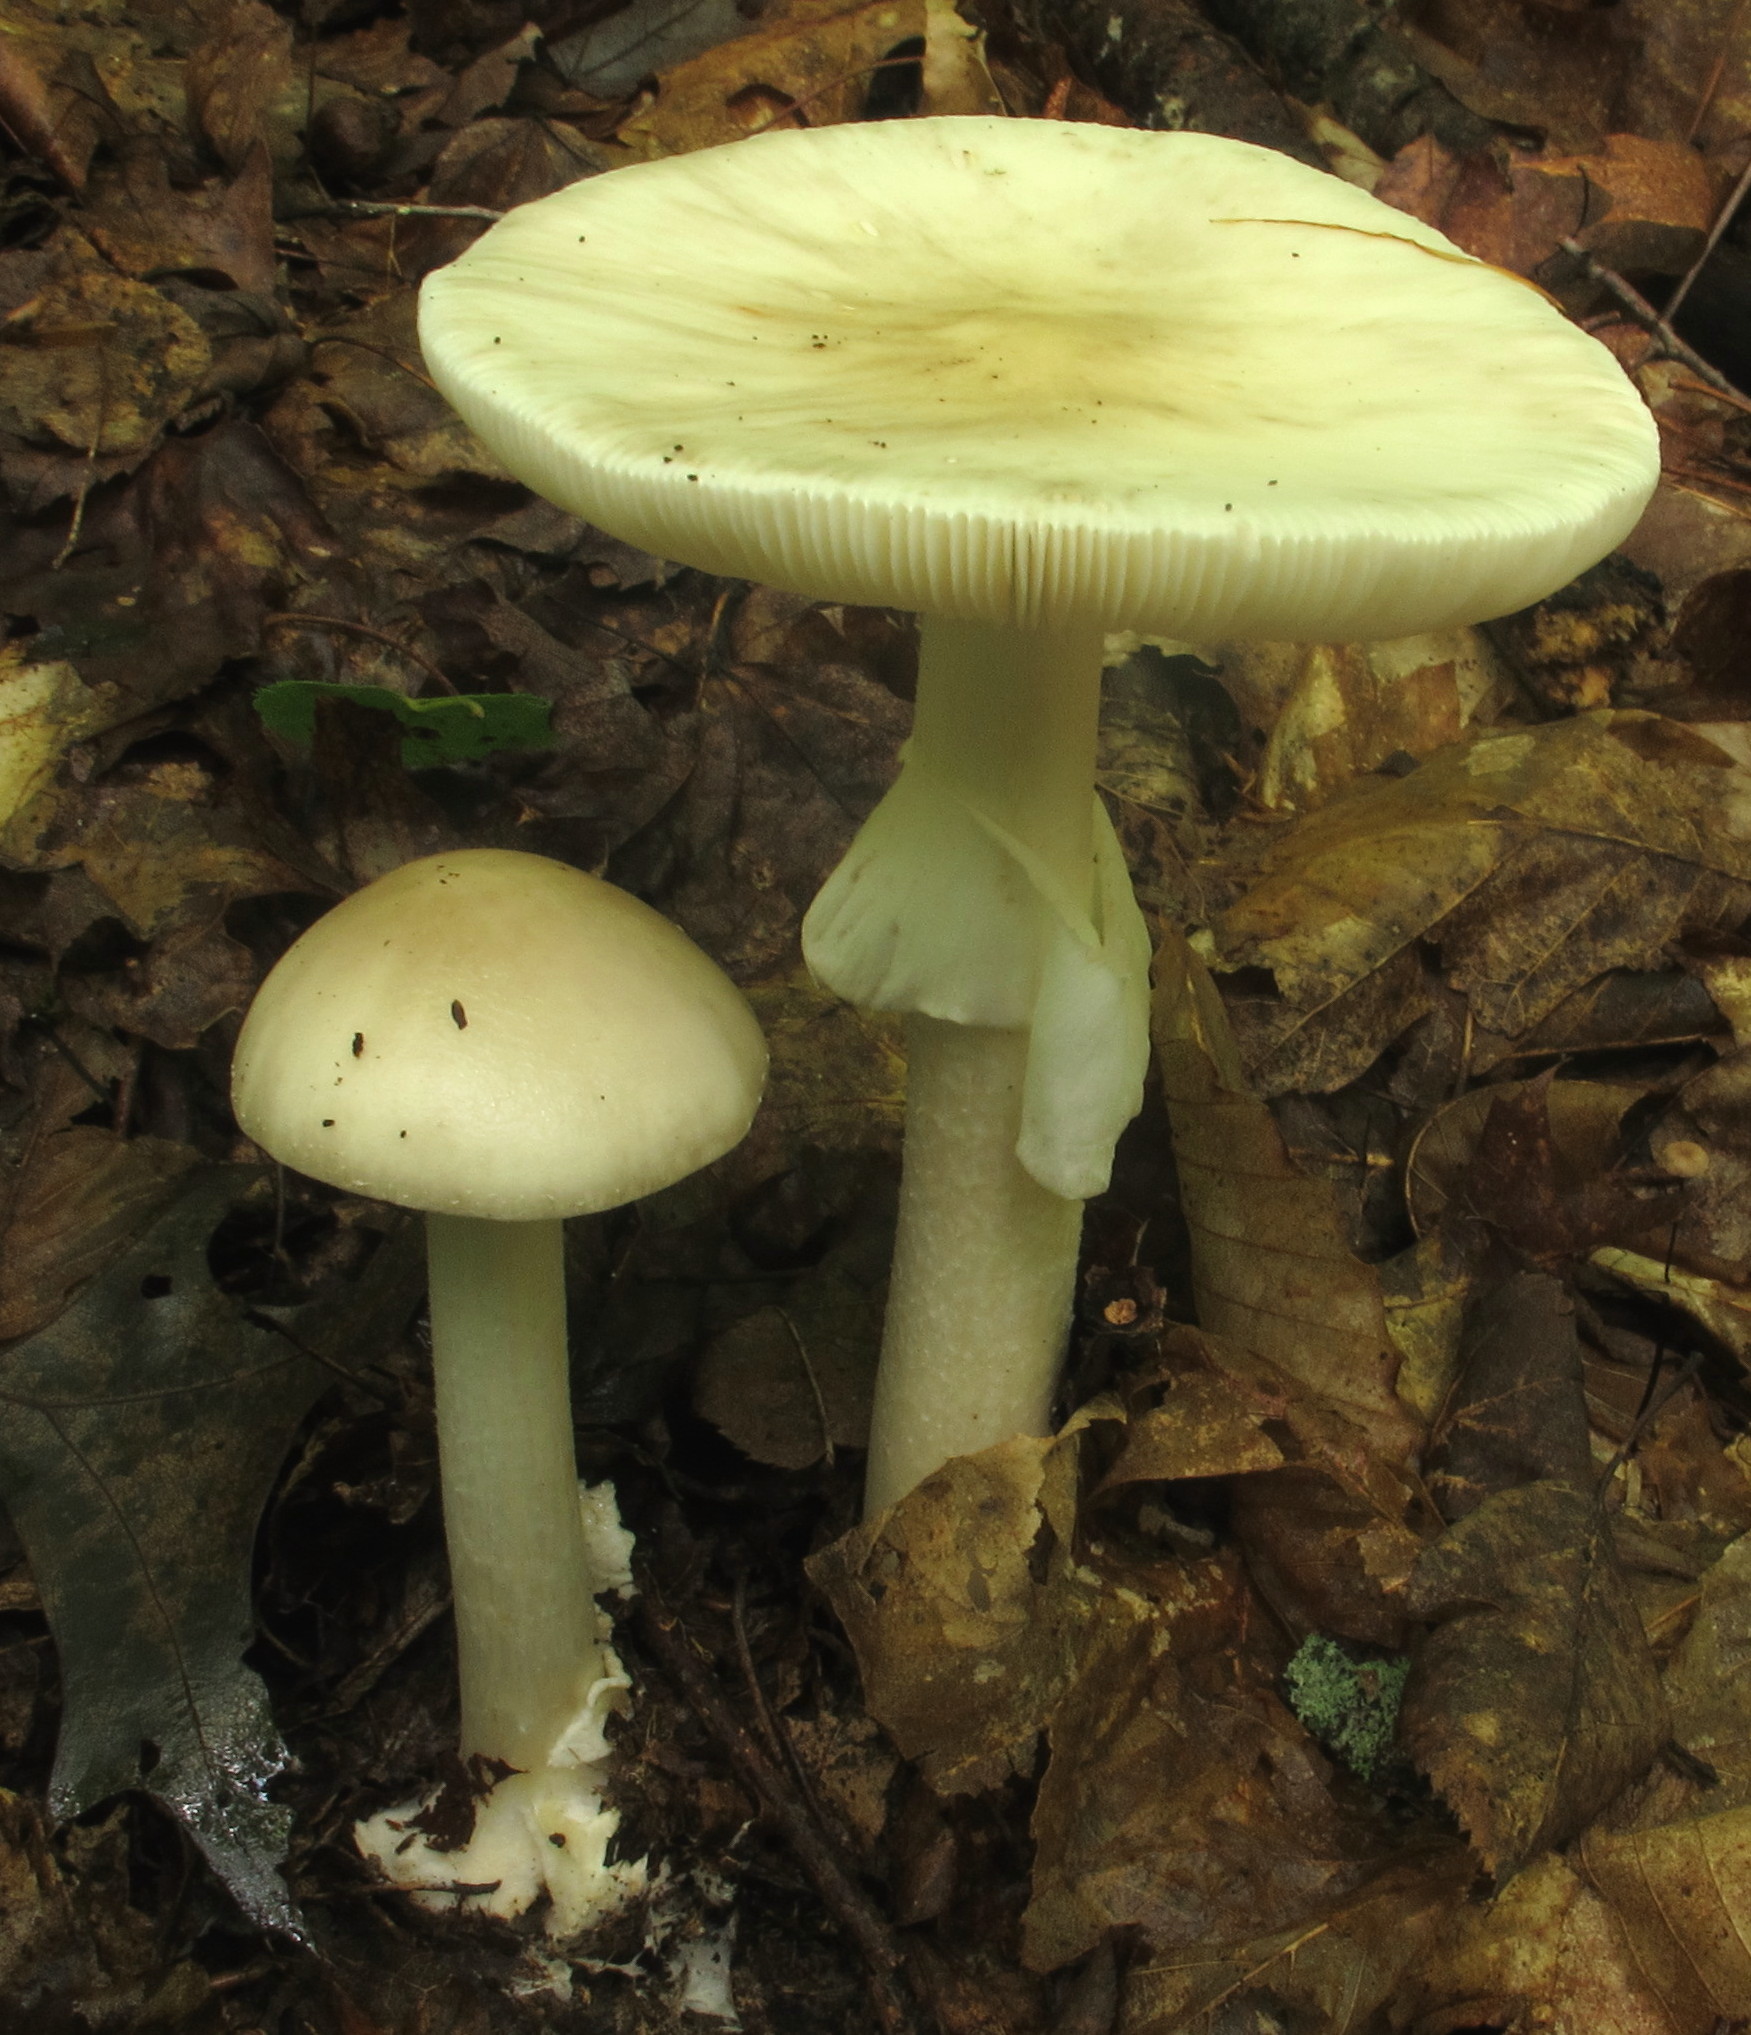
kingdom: Fungi
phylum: Basidiomycota
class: Agaricomycetes
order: Agaricales
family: Amanitaceae
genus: Amanita
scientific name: Amanita brunnescens
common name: Brown american star-footed amanita
